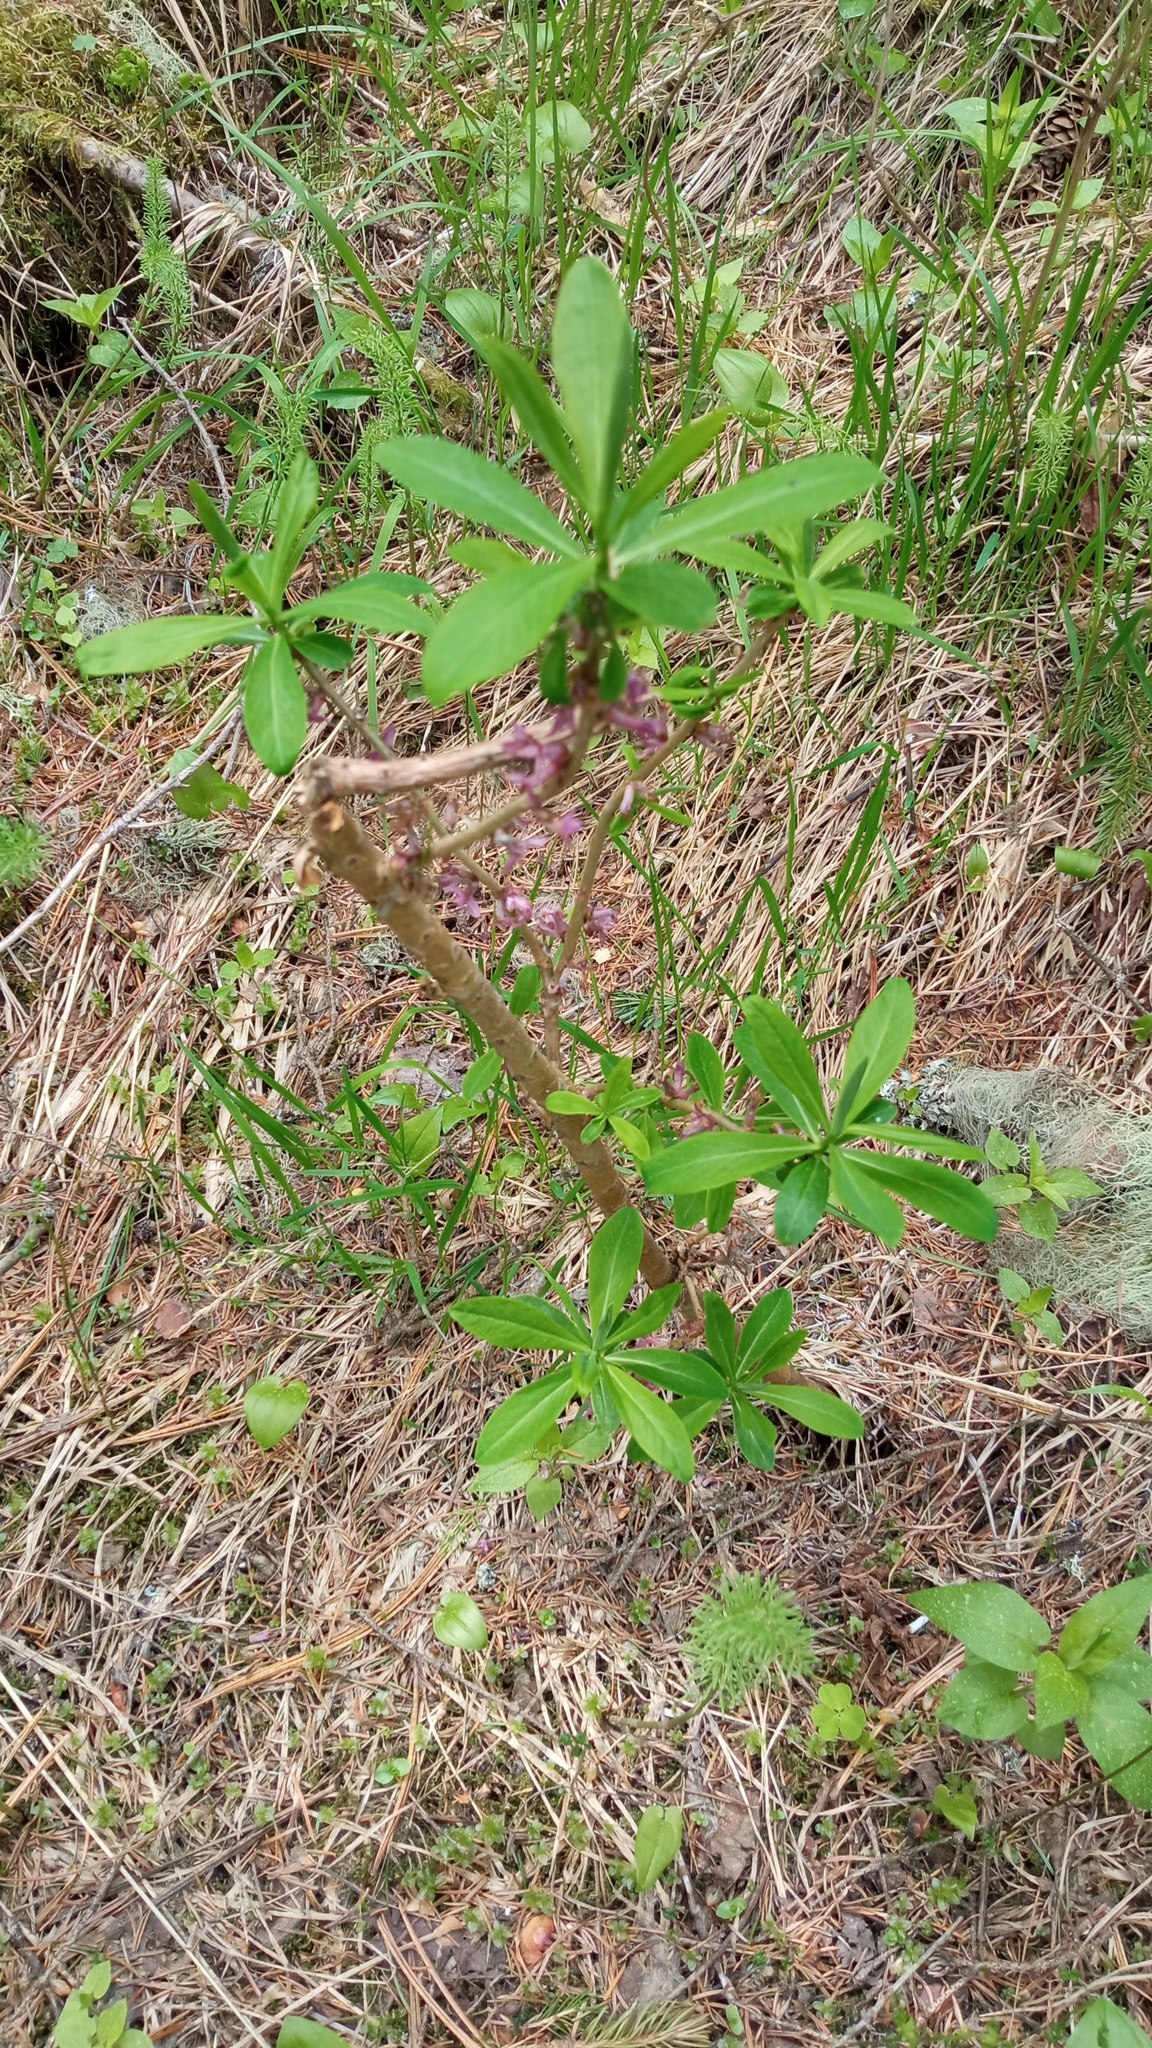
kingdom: Plantae
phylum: Tracheophyta
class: Magnoliopsida
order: Malvales
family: Thymelaeaceae
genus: Daphne
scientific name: Daphne mezereum
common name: Mezereon
